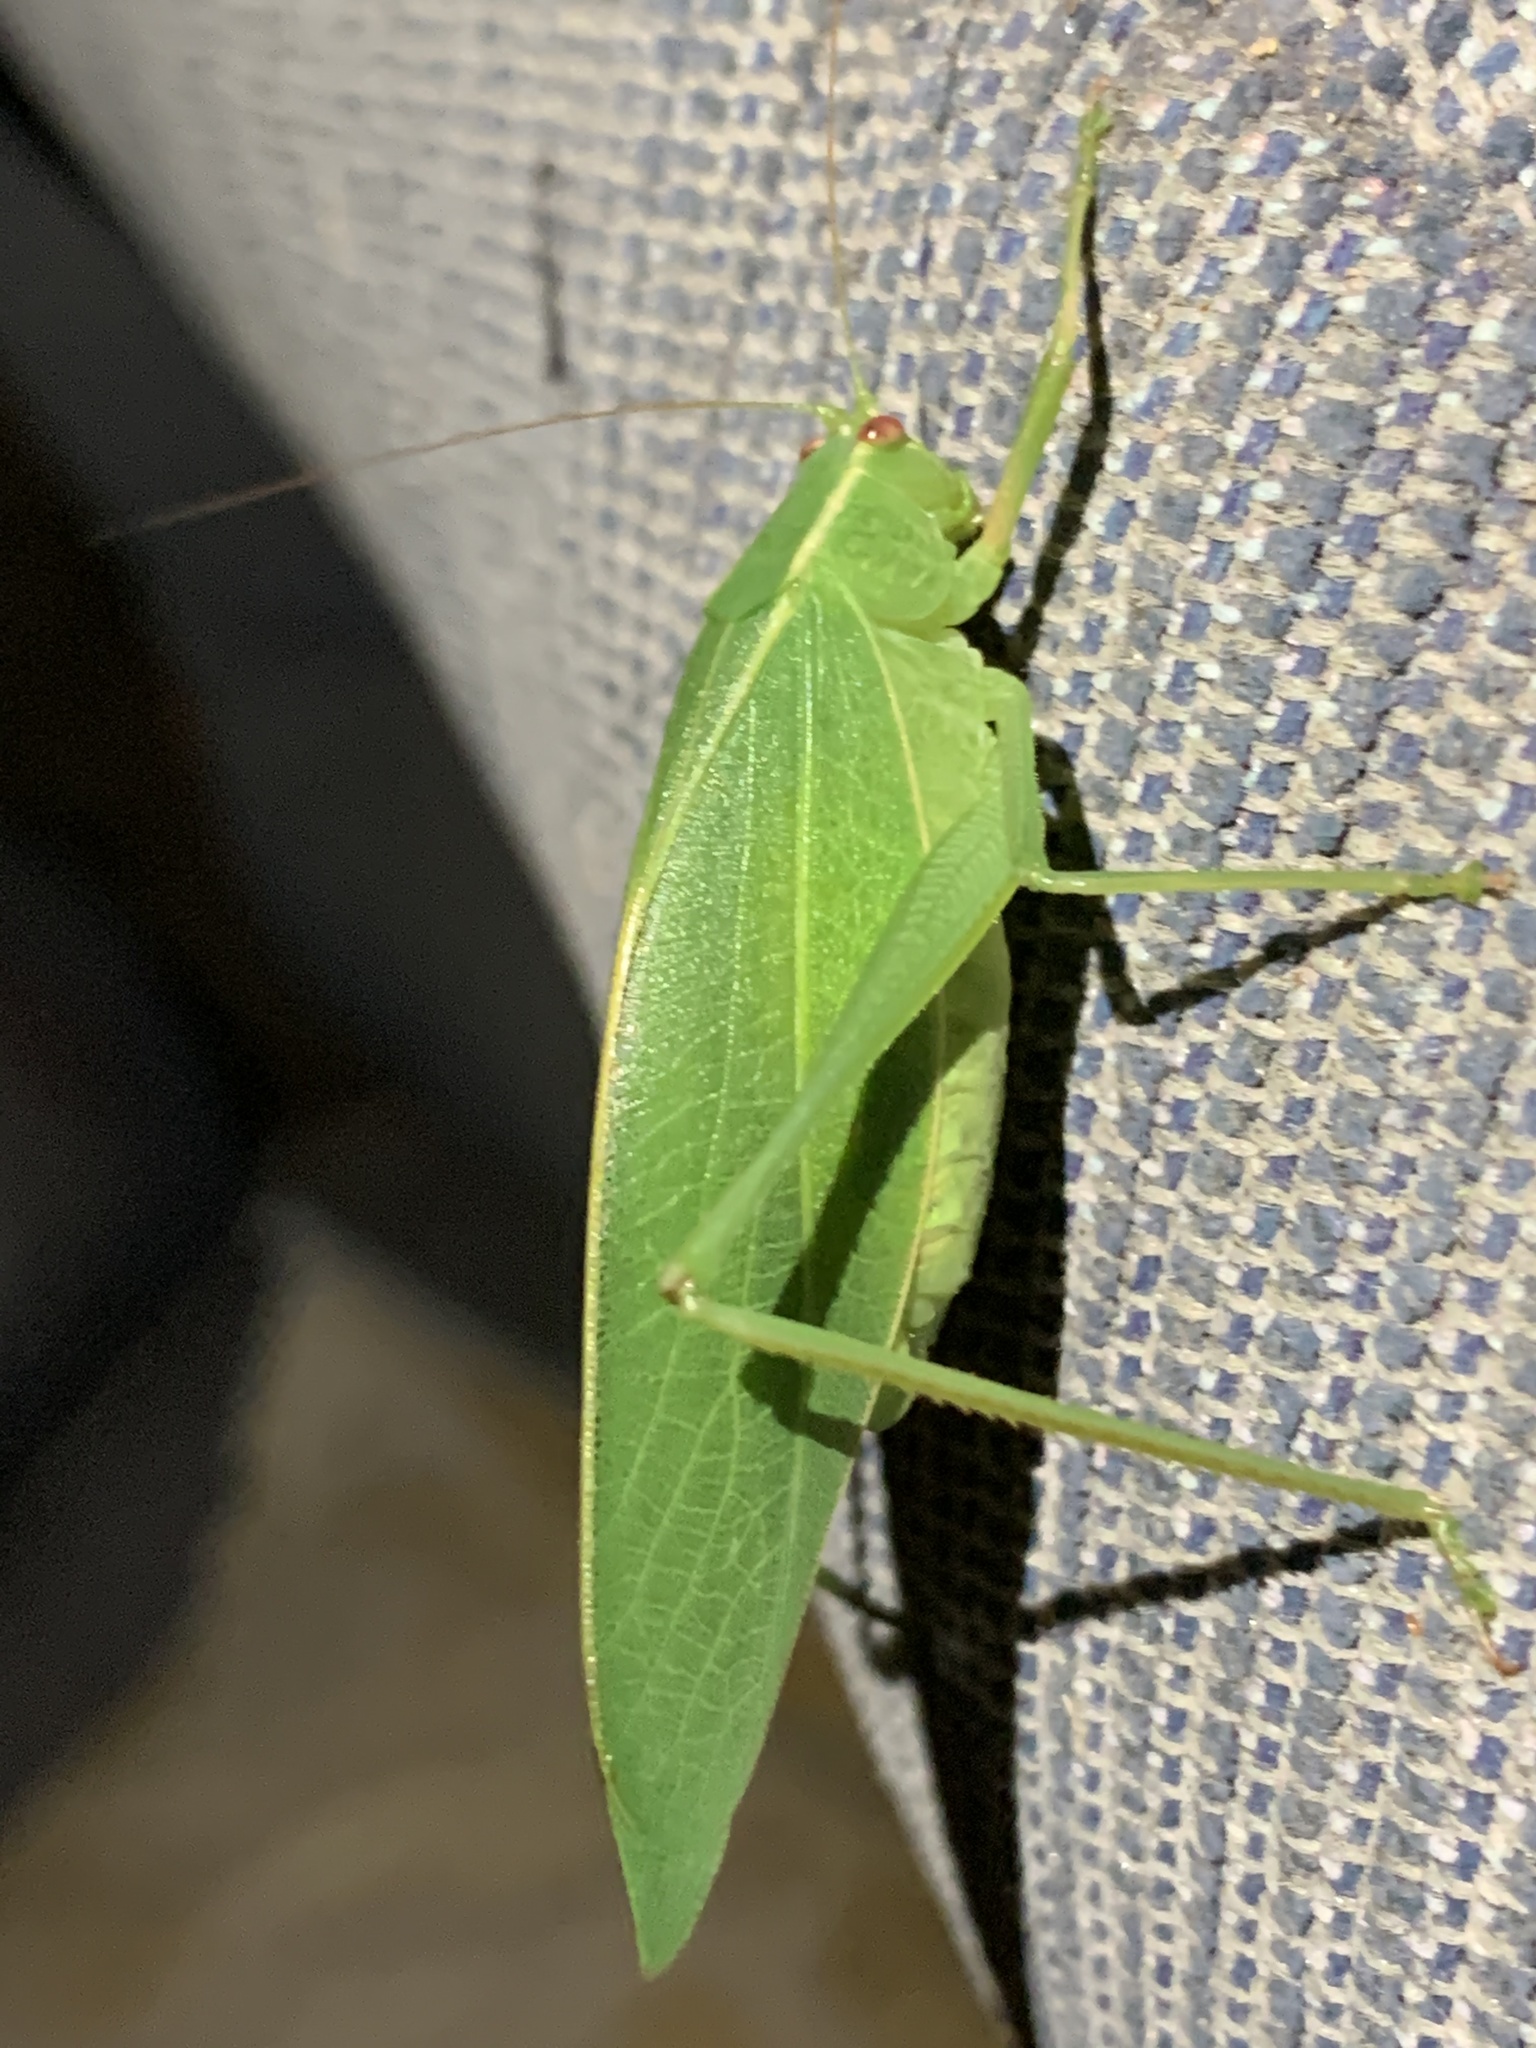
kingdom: Animalia
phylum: Arthropoda
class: Insecta
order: Orthoptera
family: Tettigoniidae
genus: Caedicia
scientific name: Caedicia simplex
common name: Common garden katydid
